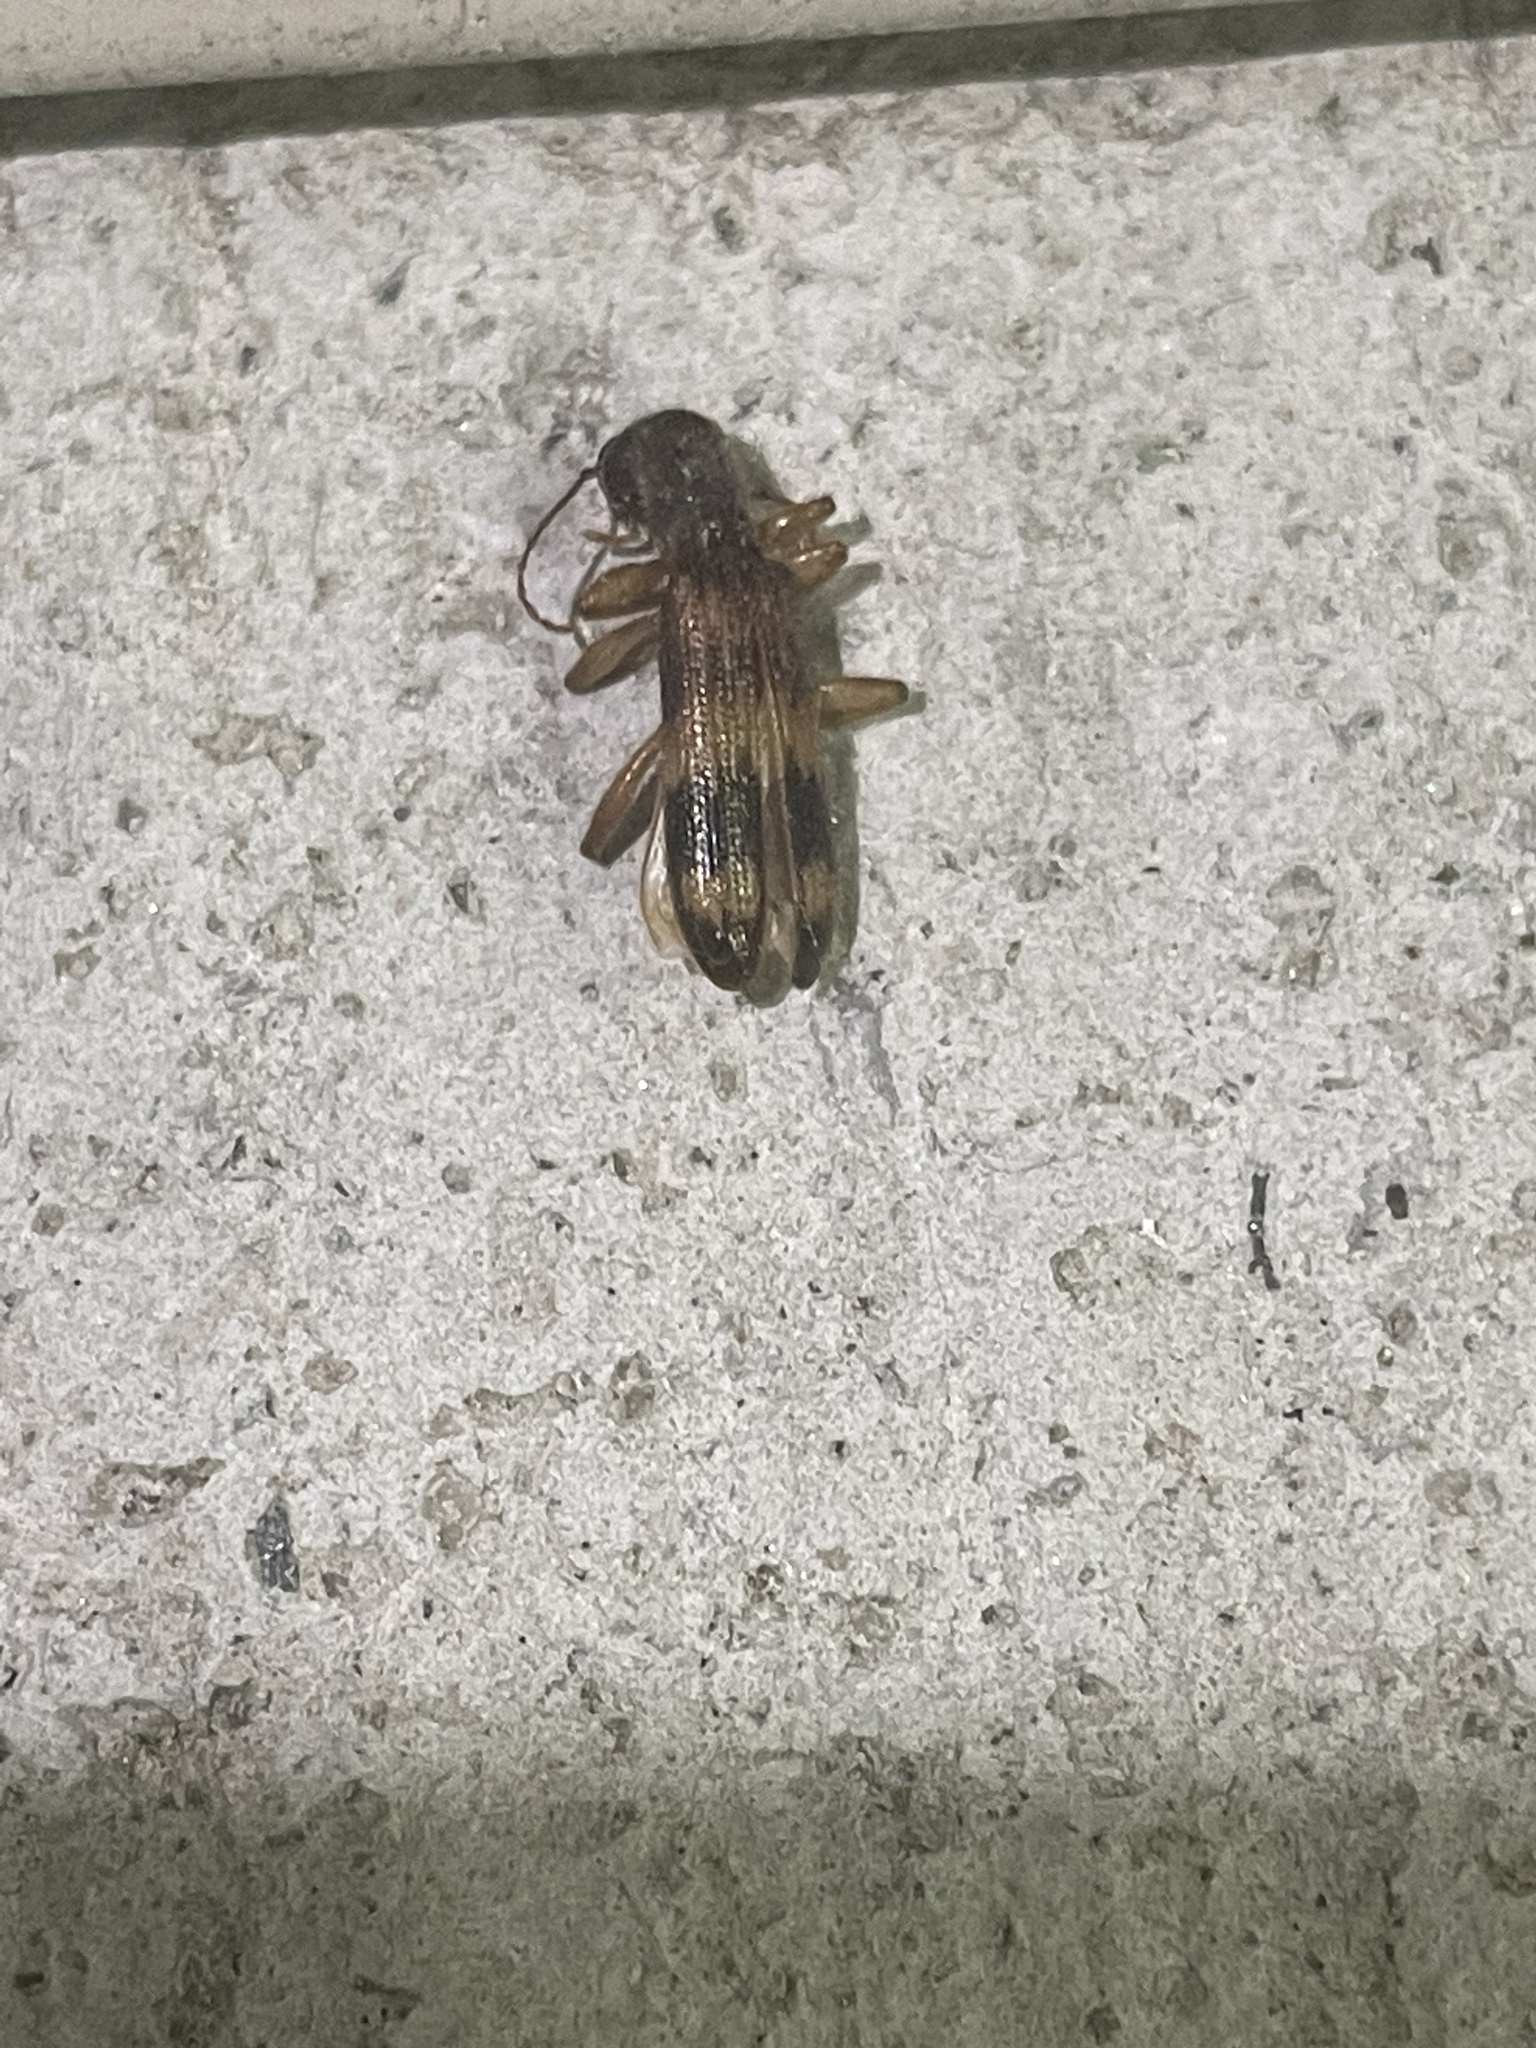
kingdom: Animalia
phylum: Arthropoda
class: Insecta
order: Coleoptera
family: Cleridae
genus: Cymatodera
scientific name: Cymatodera undulata
